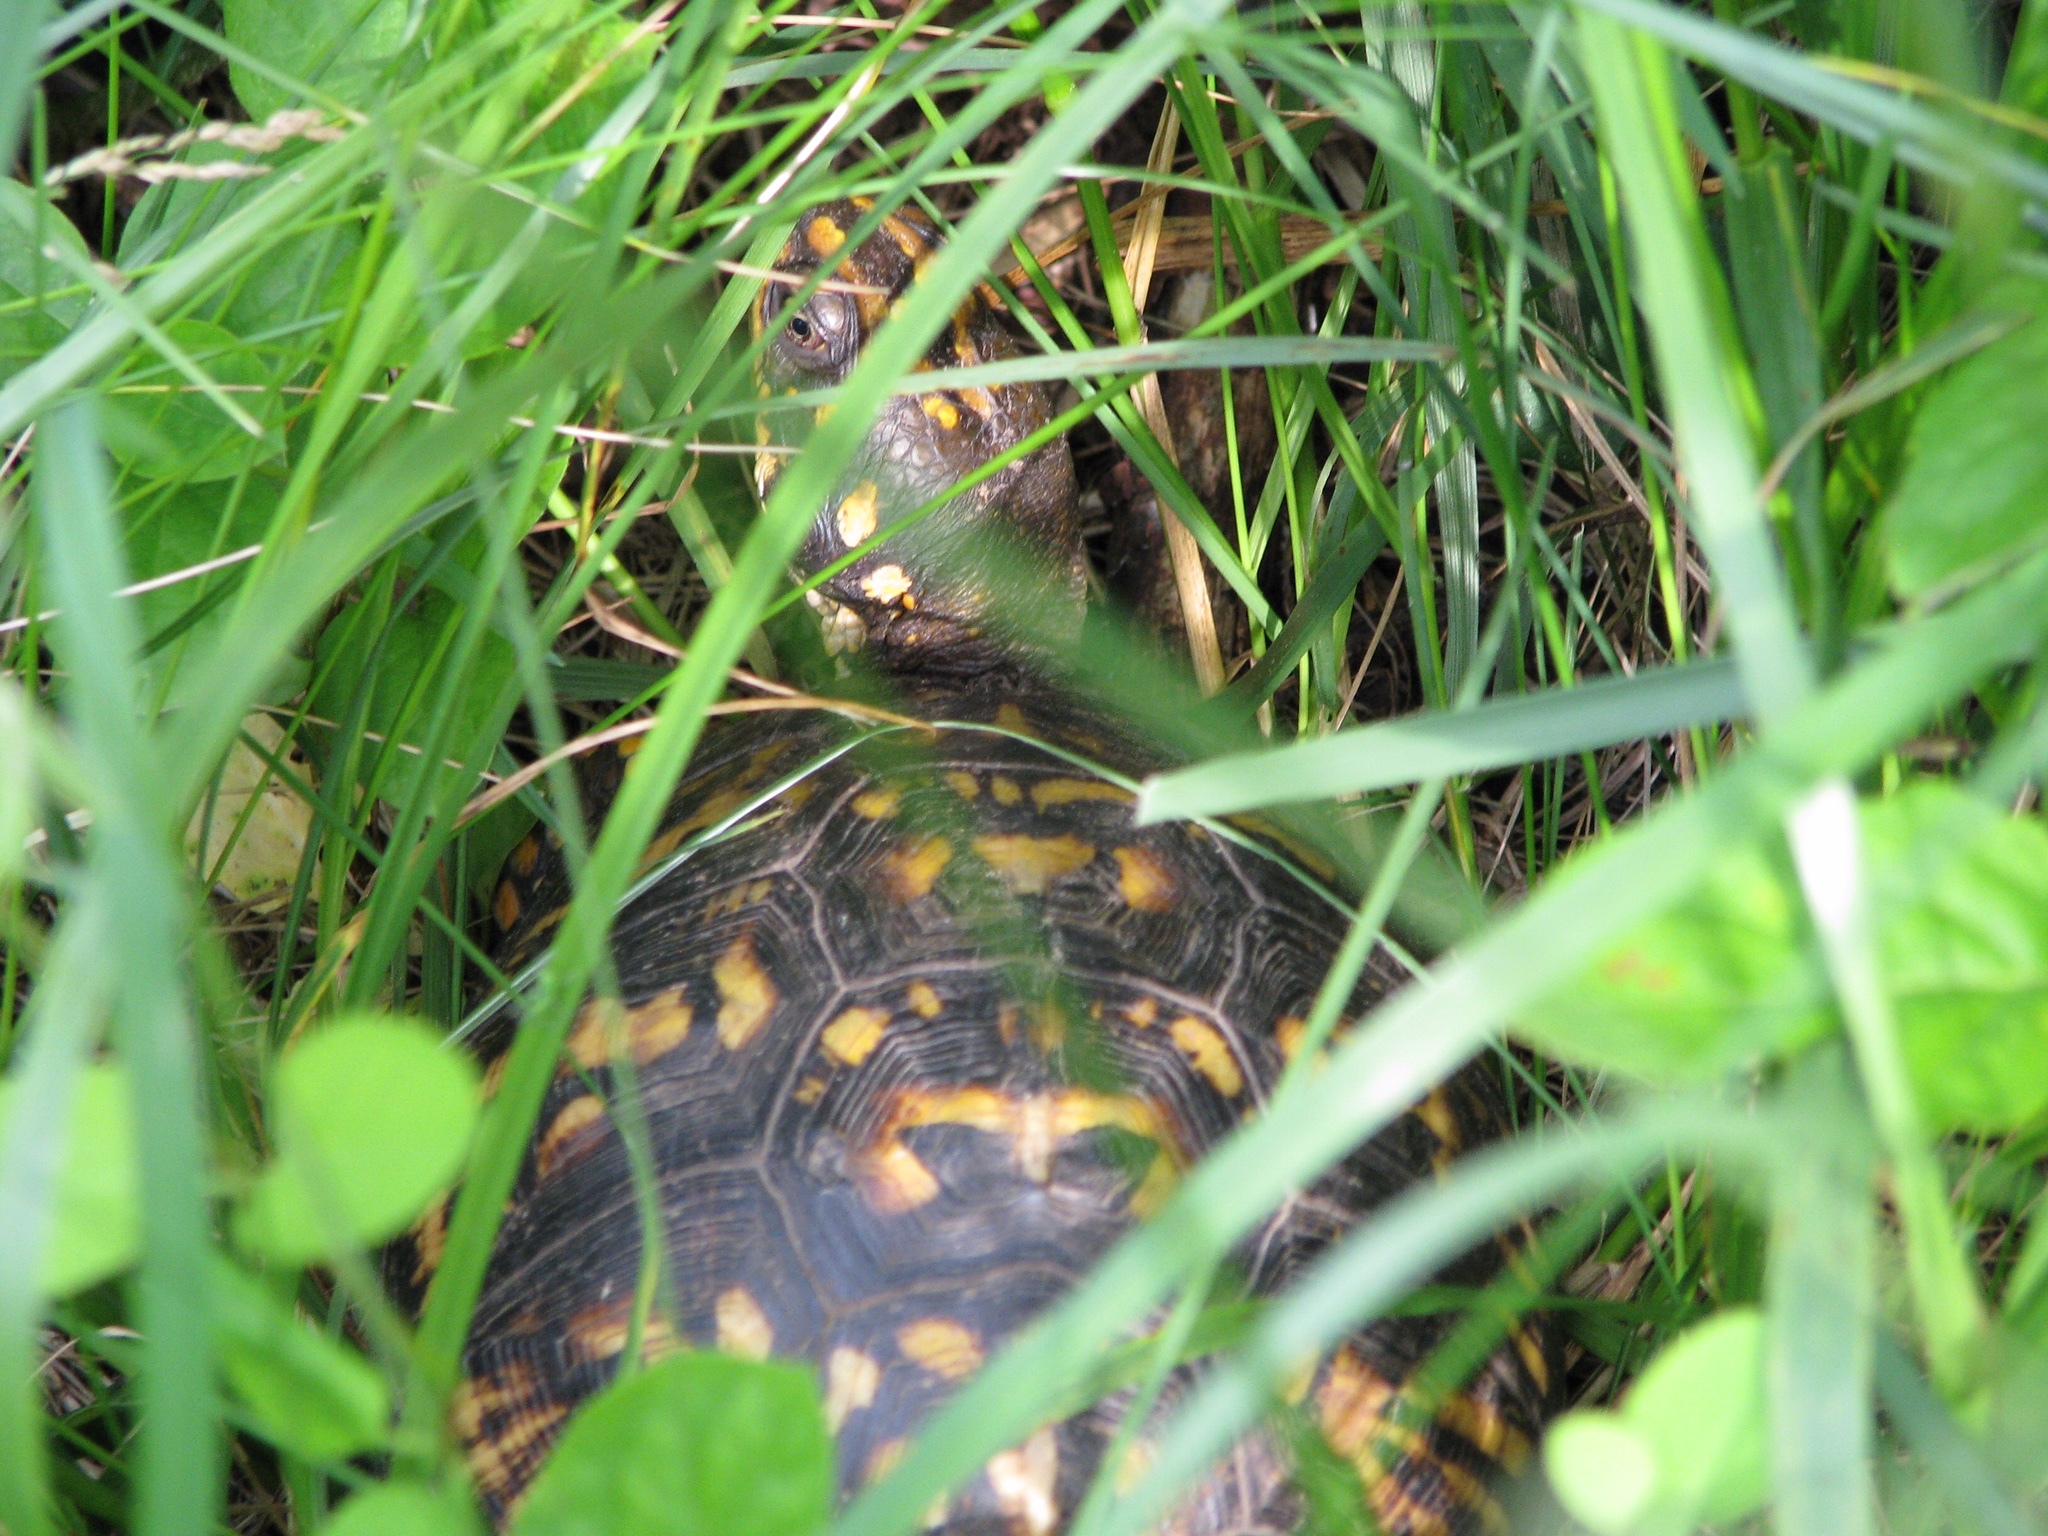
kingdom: Animalia
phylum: Chordata
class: Testudines
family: Emydidae
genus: Terrapene
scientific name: Terrapene carolina
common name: Common box turtle
